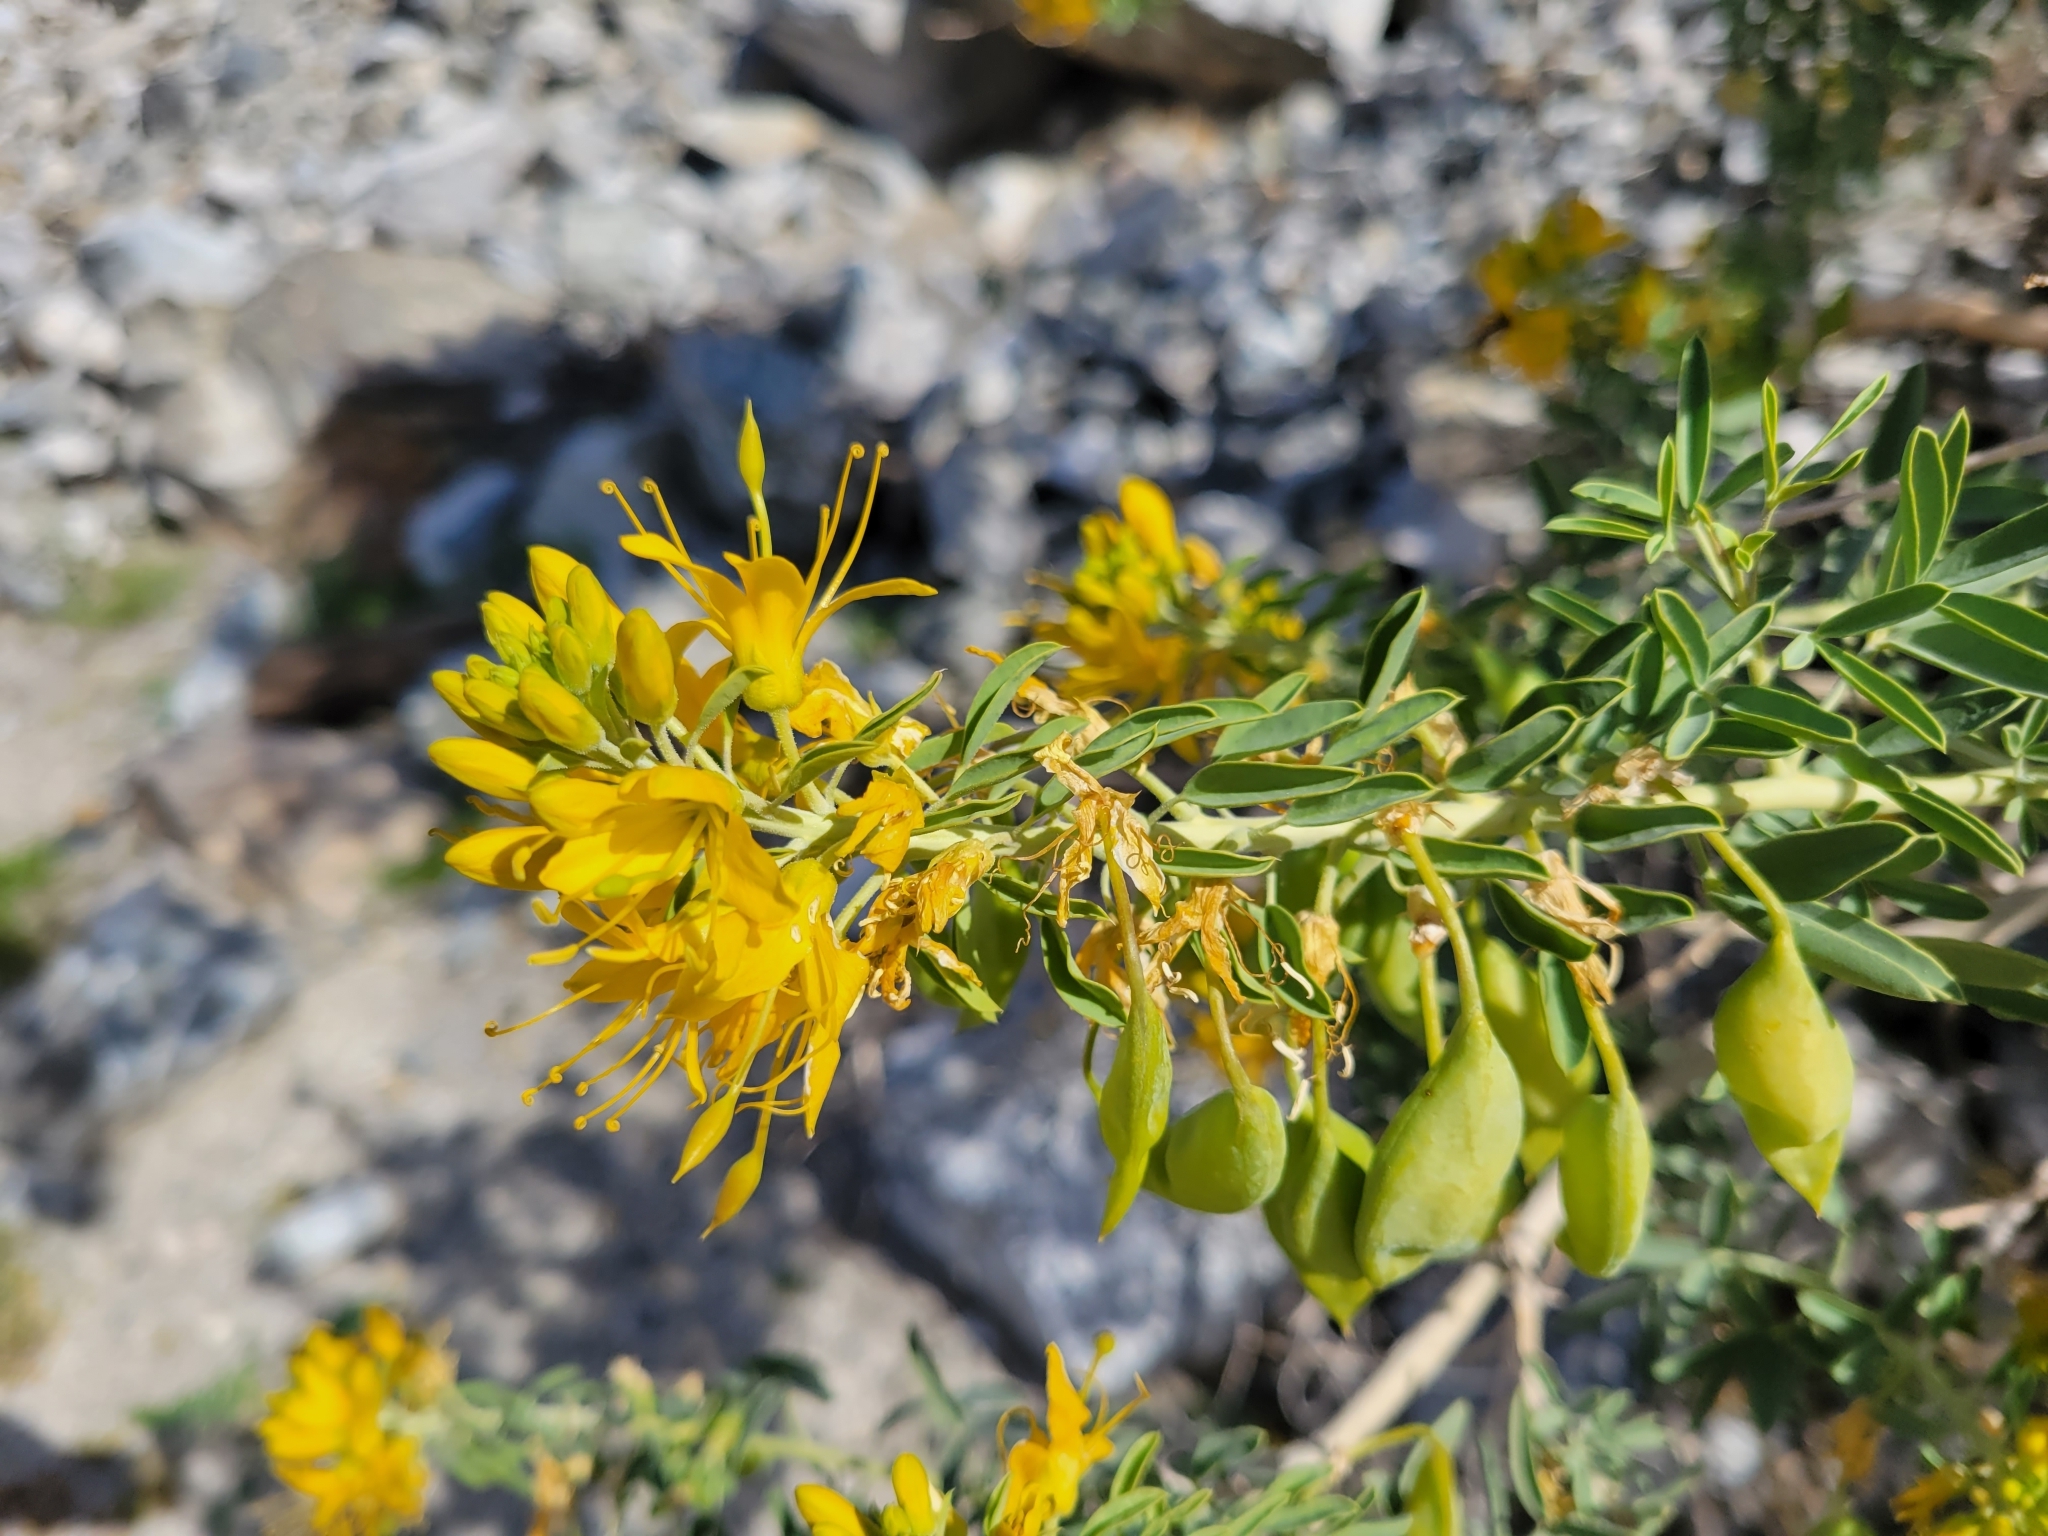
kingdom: Plantae
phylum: Tracheophyta
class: Magnoliopsida
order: Brassicales
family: Cleomaceae
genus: Cleomella
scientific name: Cleomella arborea
